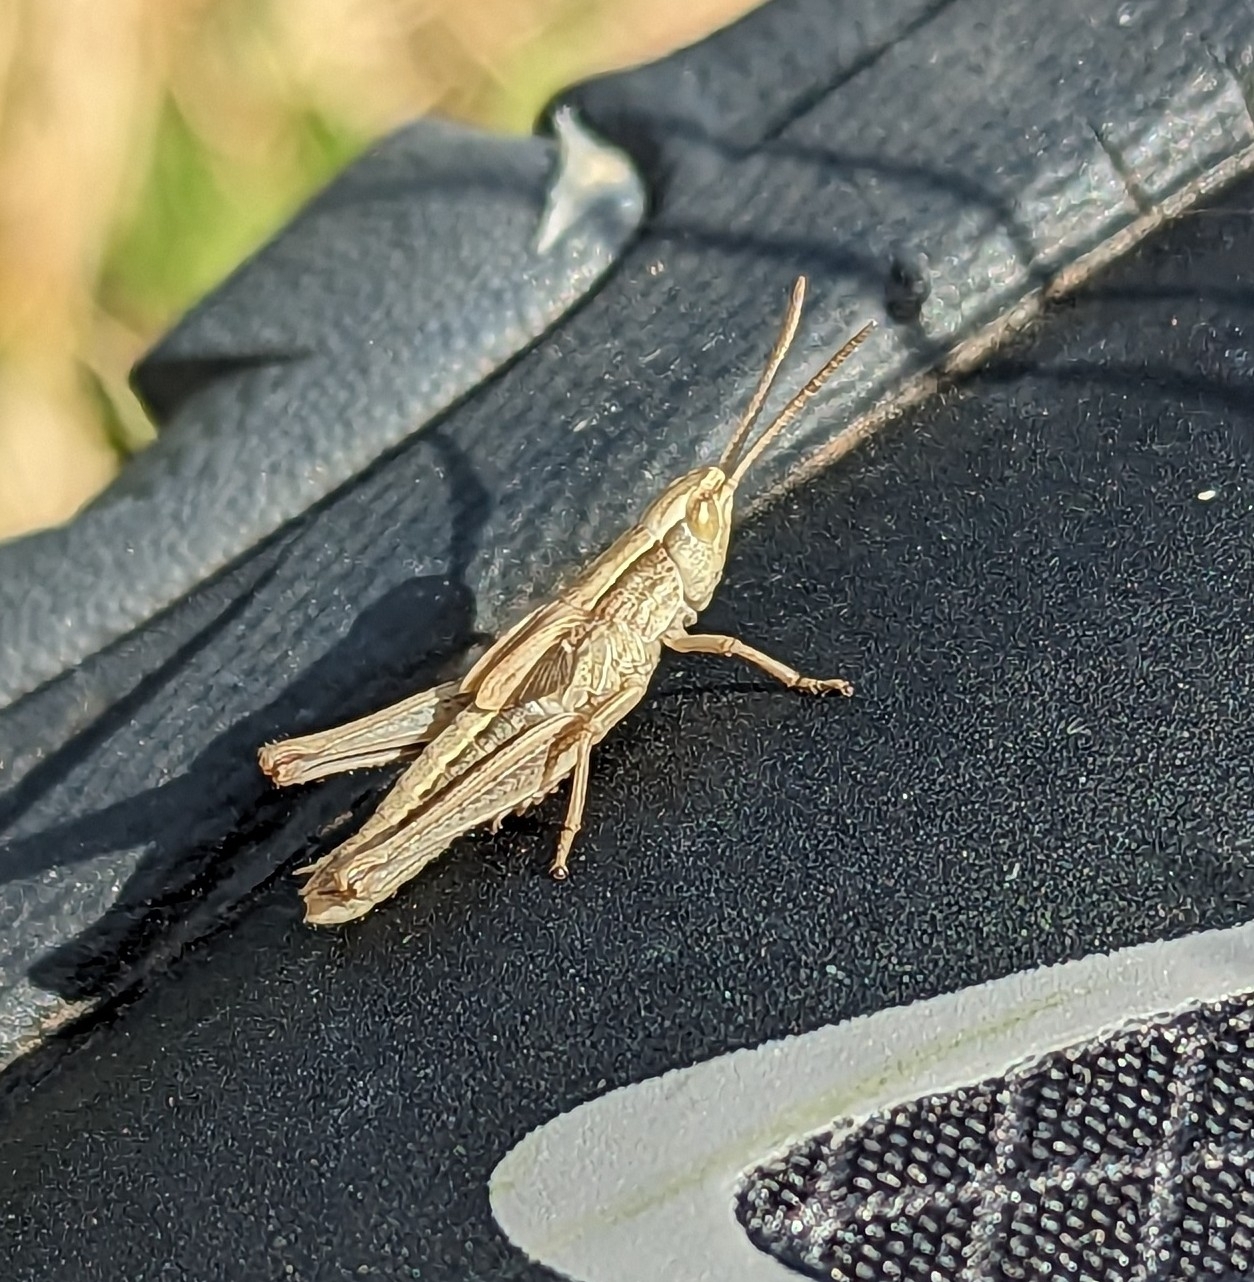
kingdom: Animalia
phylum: Arthropoda
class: Insecta
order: Orthoptera
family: Acrididae
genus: Chorthippus
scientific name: Chorthippus albomarginatus
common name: Lesser marsh grasshopper
